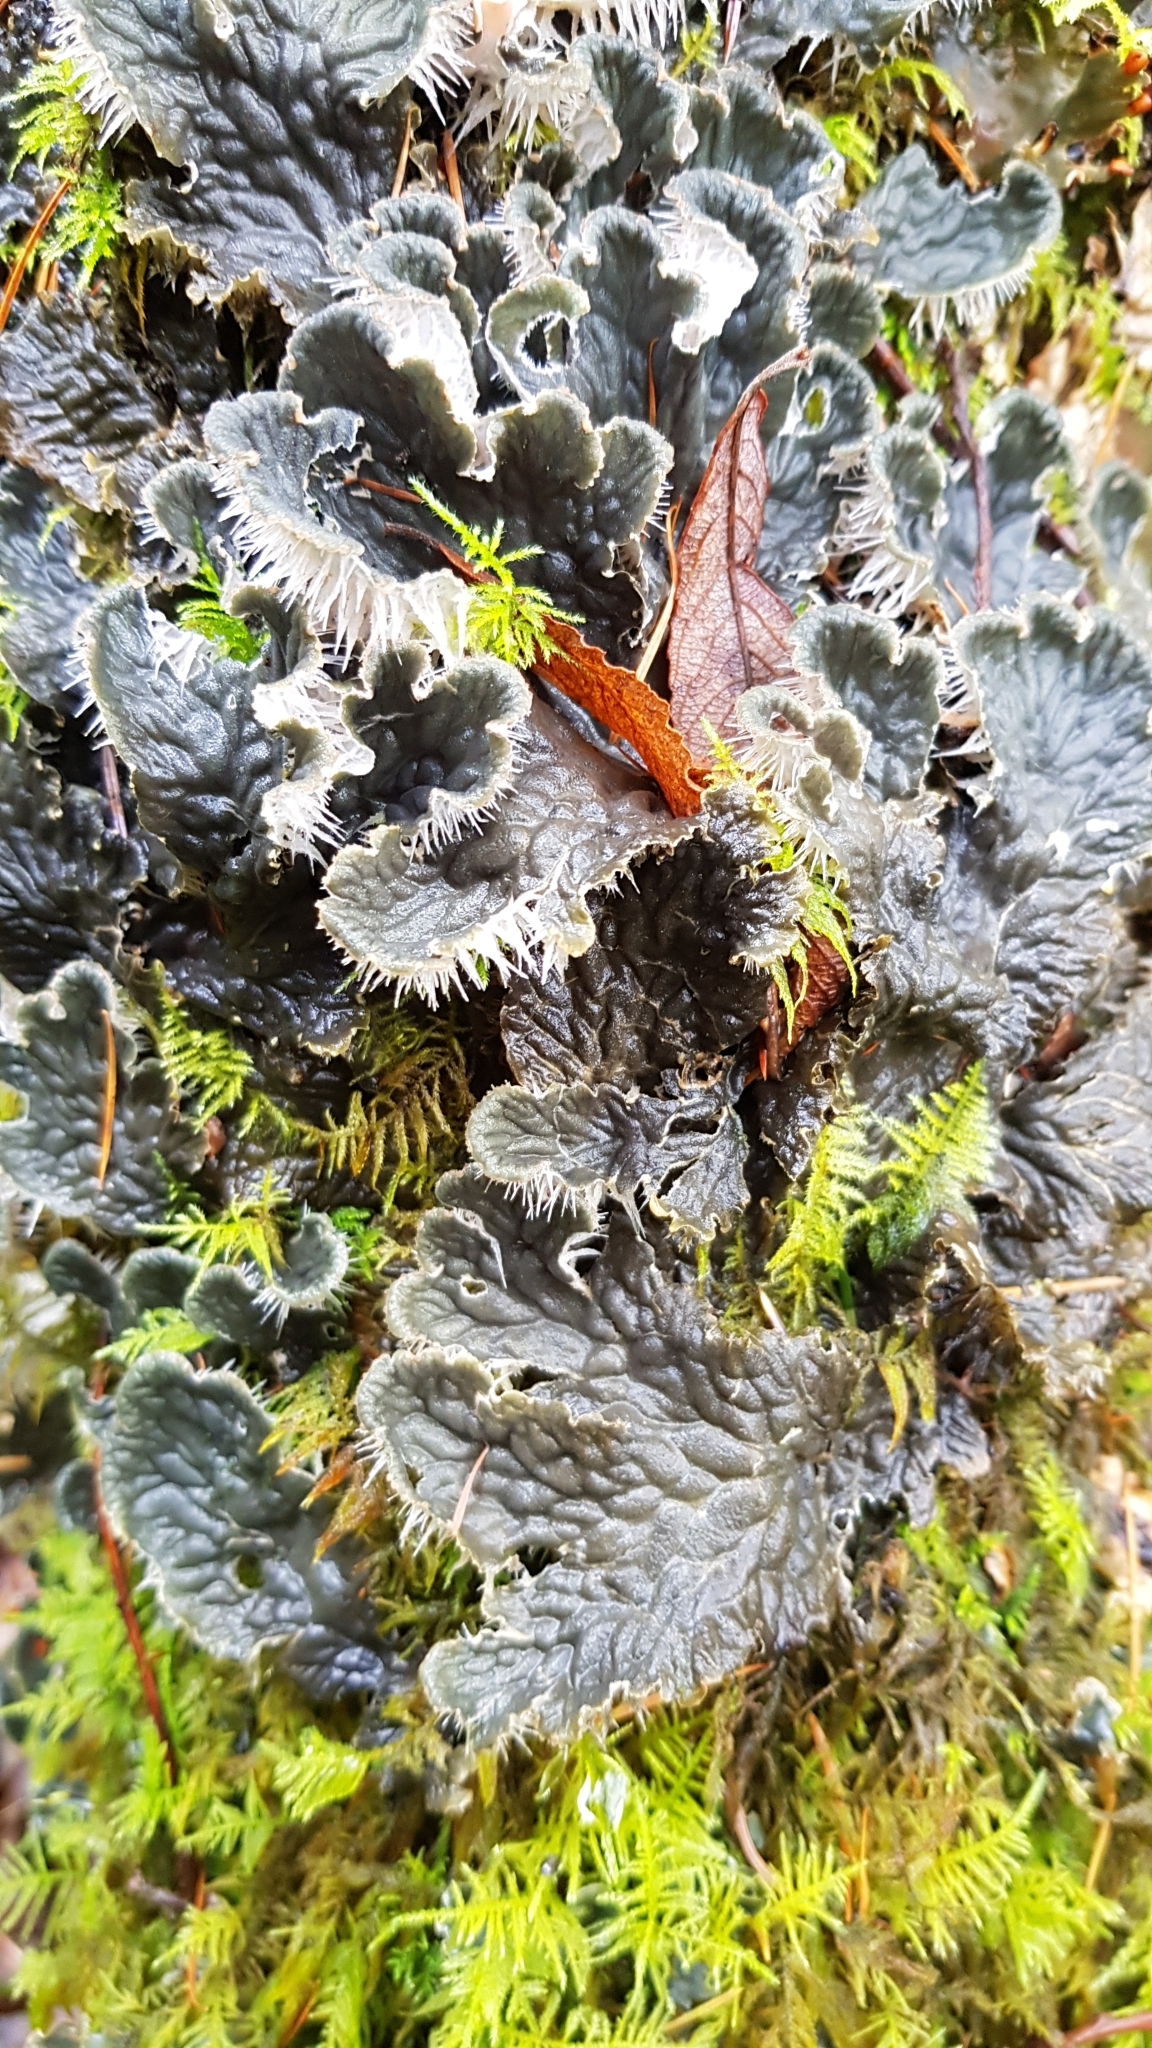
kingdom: Fungi
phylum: Ascomycota
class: Lecanoromycetes
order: Peltigerales
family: Peltigeraceae
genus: Peltigera
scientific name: Peltigera membranacea
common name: Membranous pelt lichen
